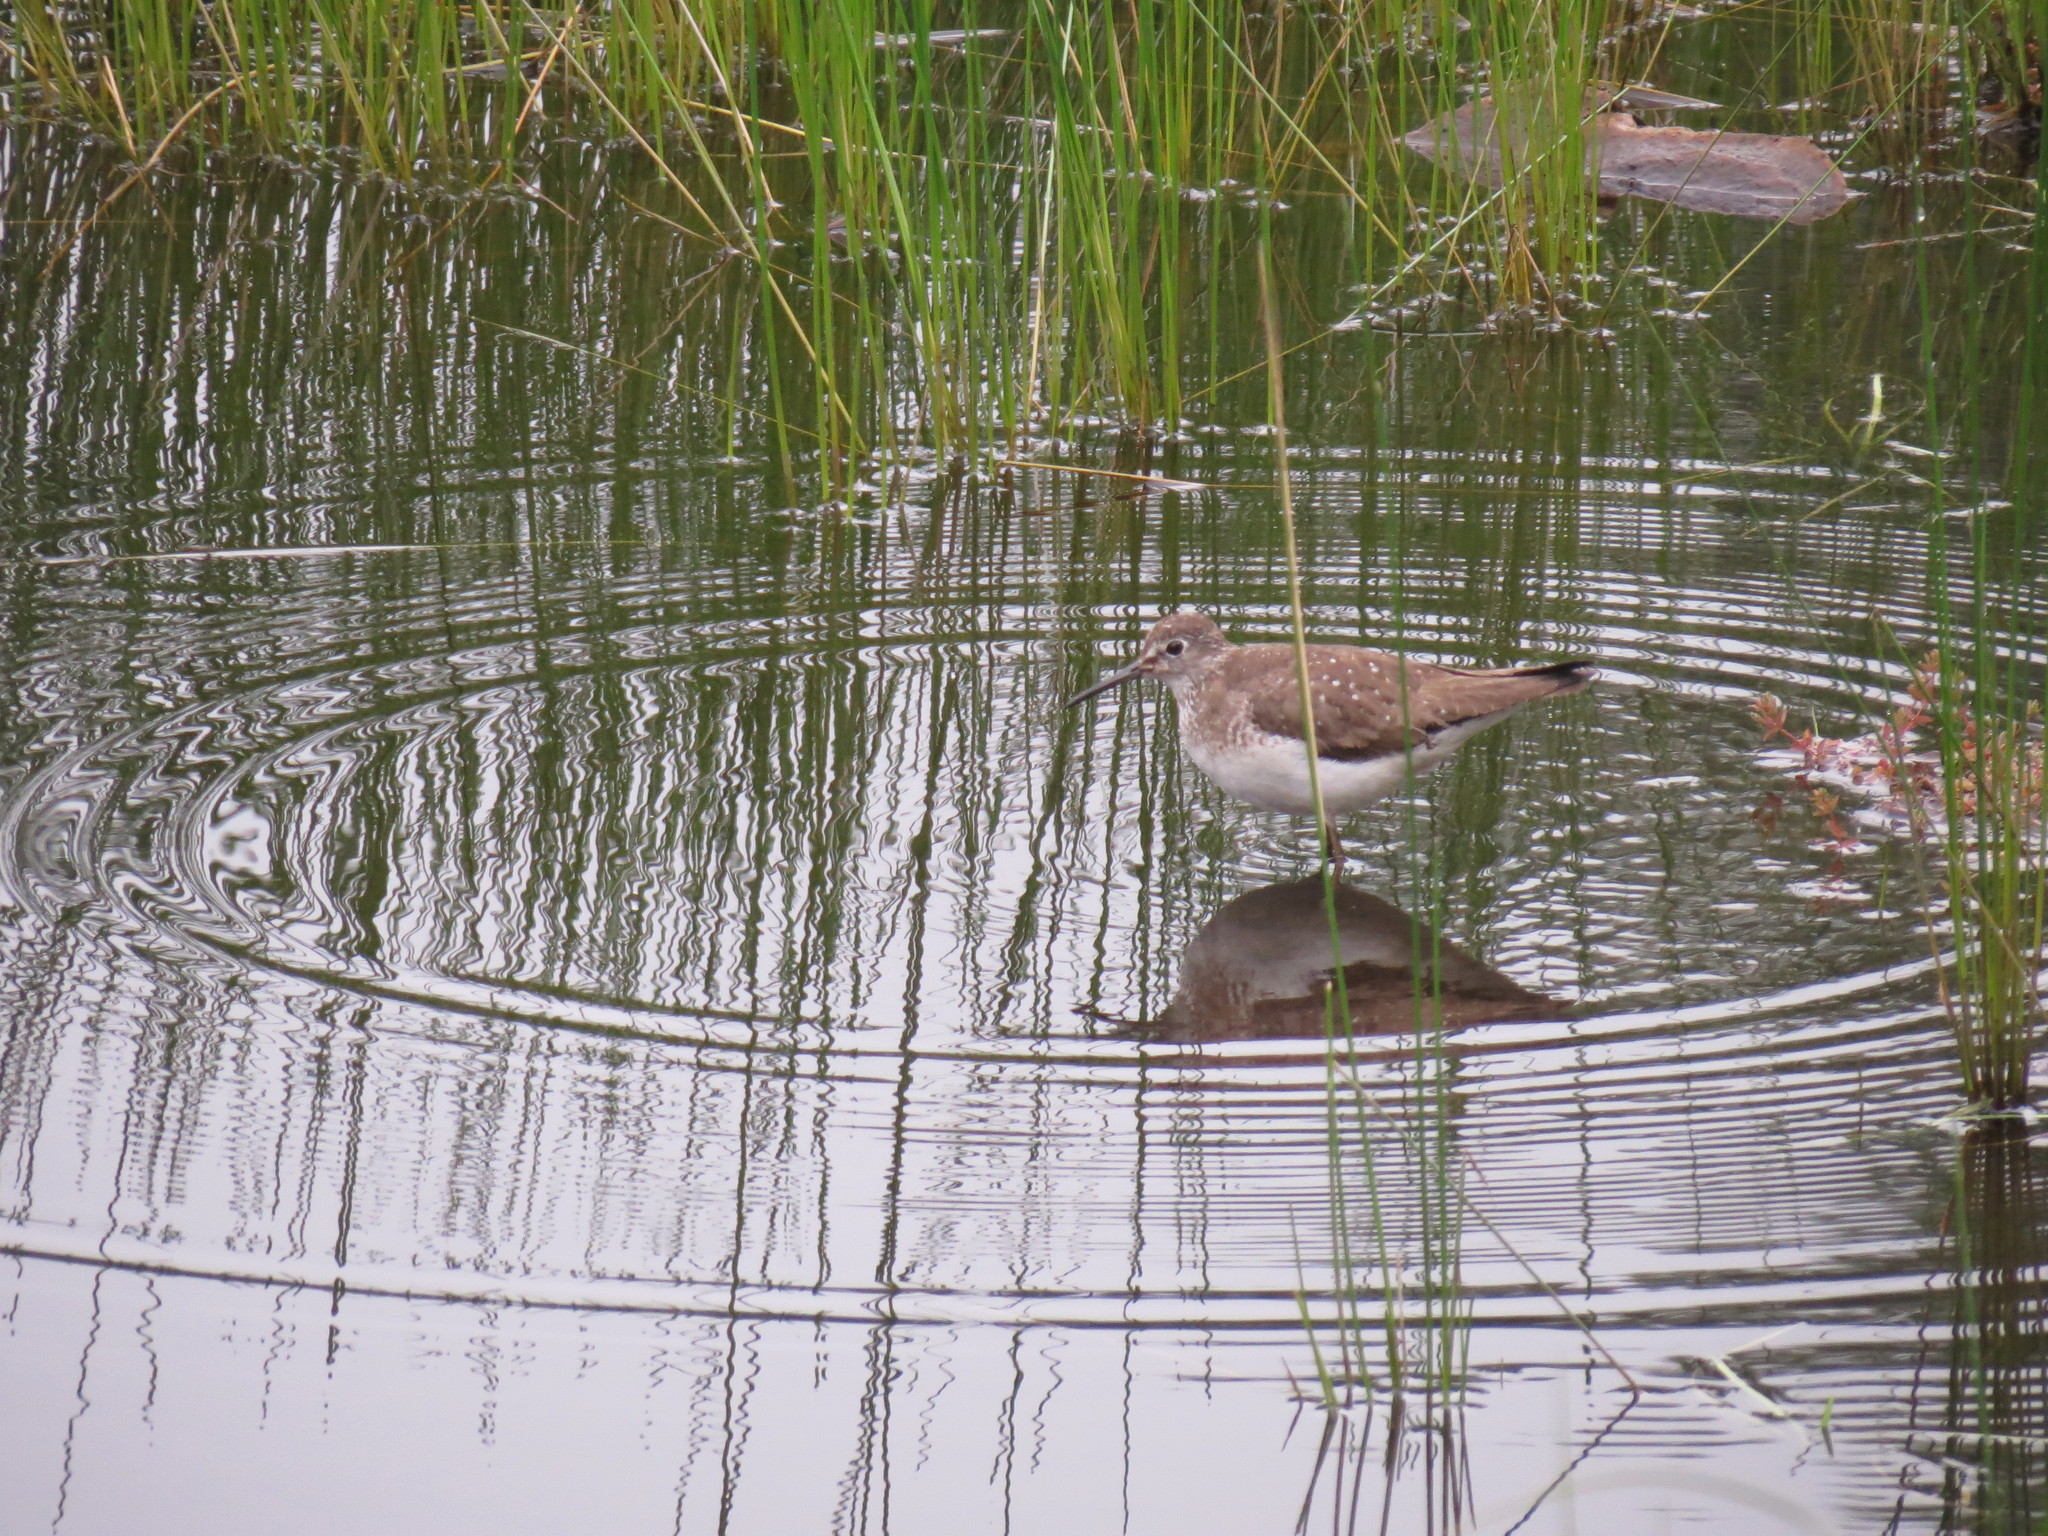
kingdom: Animalia
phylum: Chordata
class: Aves
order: Charadriiformes
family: Scolopacidae
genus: Tringa
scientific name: Tringa solitaria
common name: Solitary sandpiper
